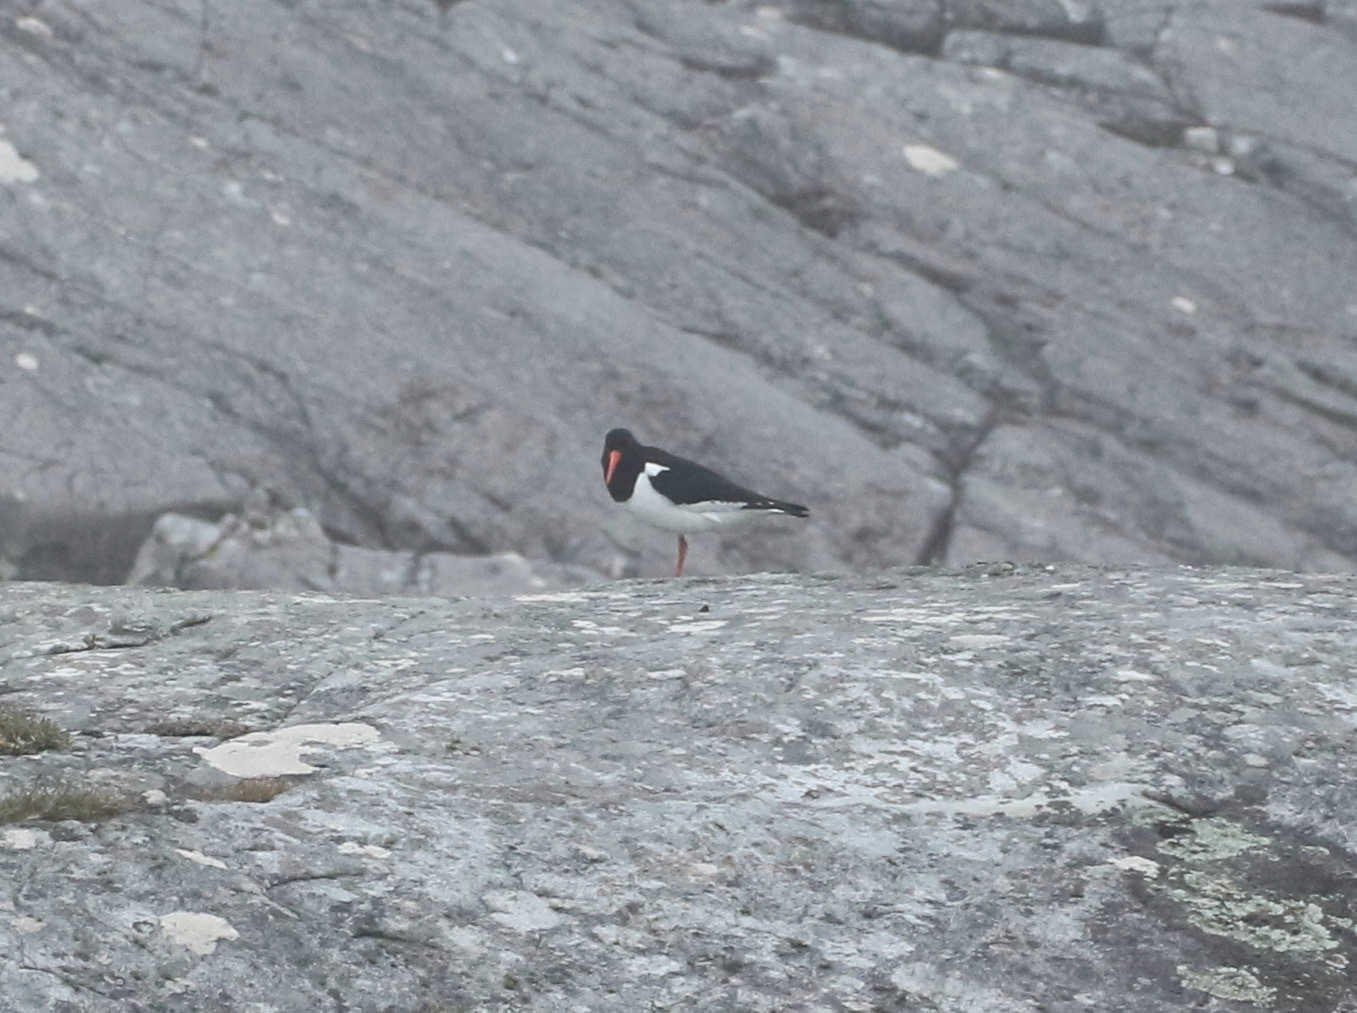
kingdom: Animalia
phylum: Chordata
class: Aves
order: Charadriiformes
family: Haematopodidae
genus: Haematopus
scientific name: Haematopus ostralegus
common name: Eurasian oystercatcher
